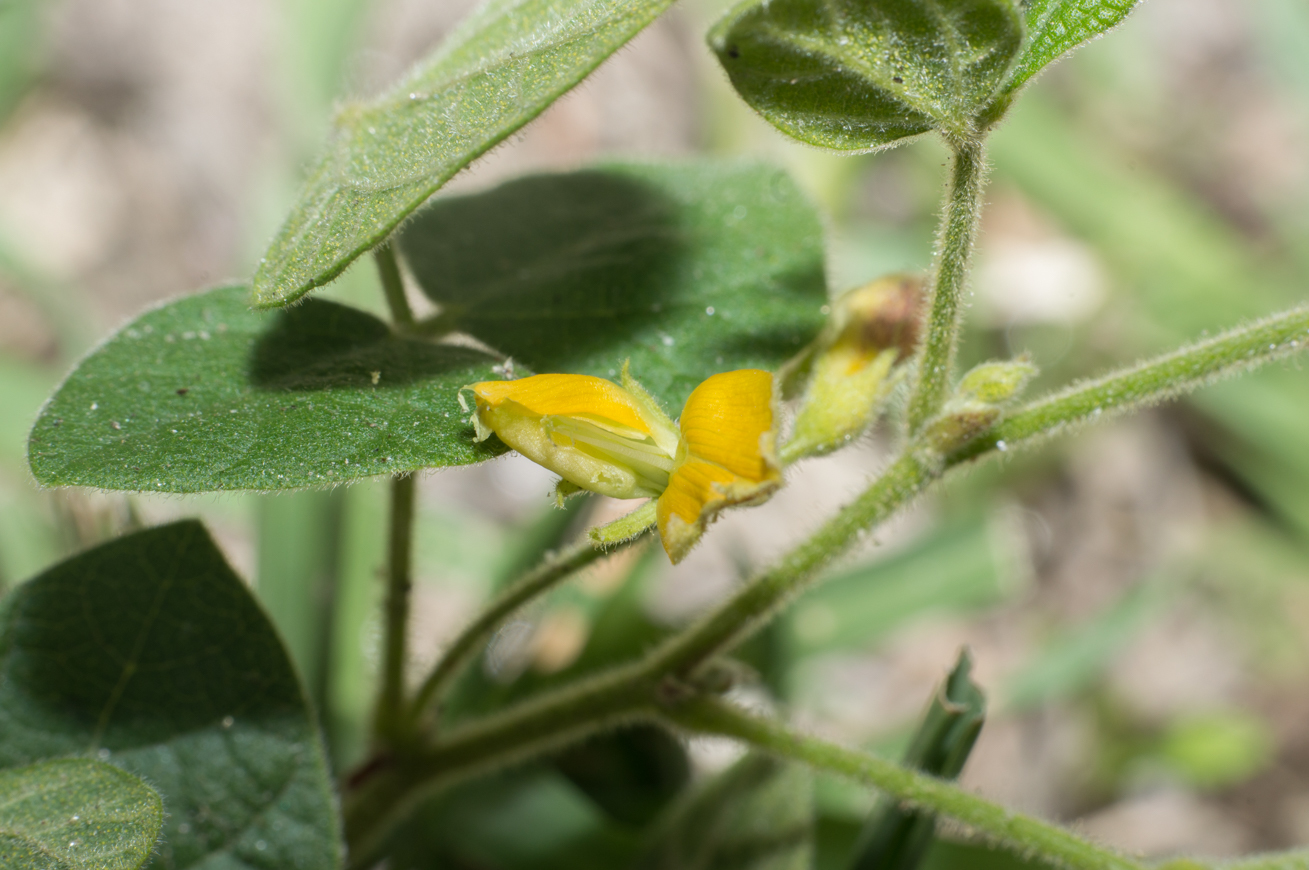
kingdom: Plantae
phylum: Tracheophyta
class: Magnoliopsida
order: Fabales
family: Fabaceae
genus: Rhynchosia
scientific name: Rhynchosia edulis
